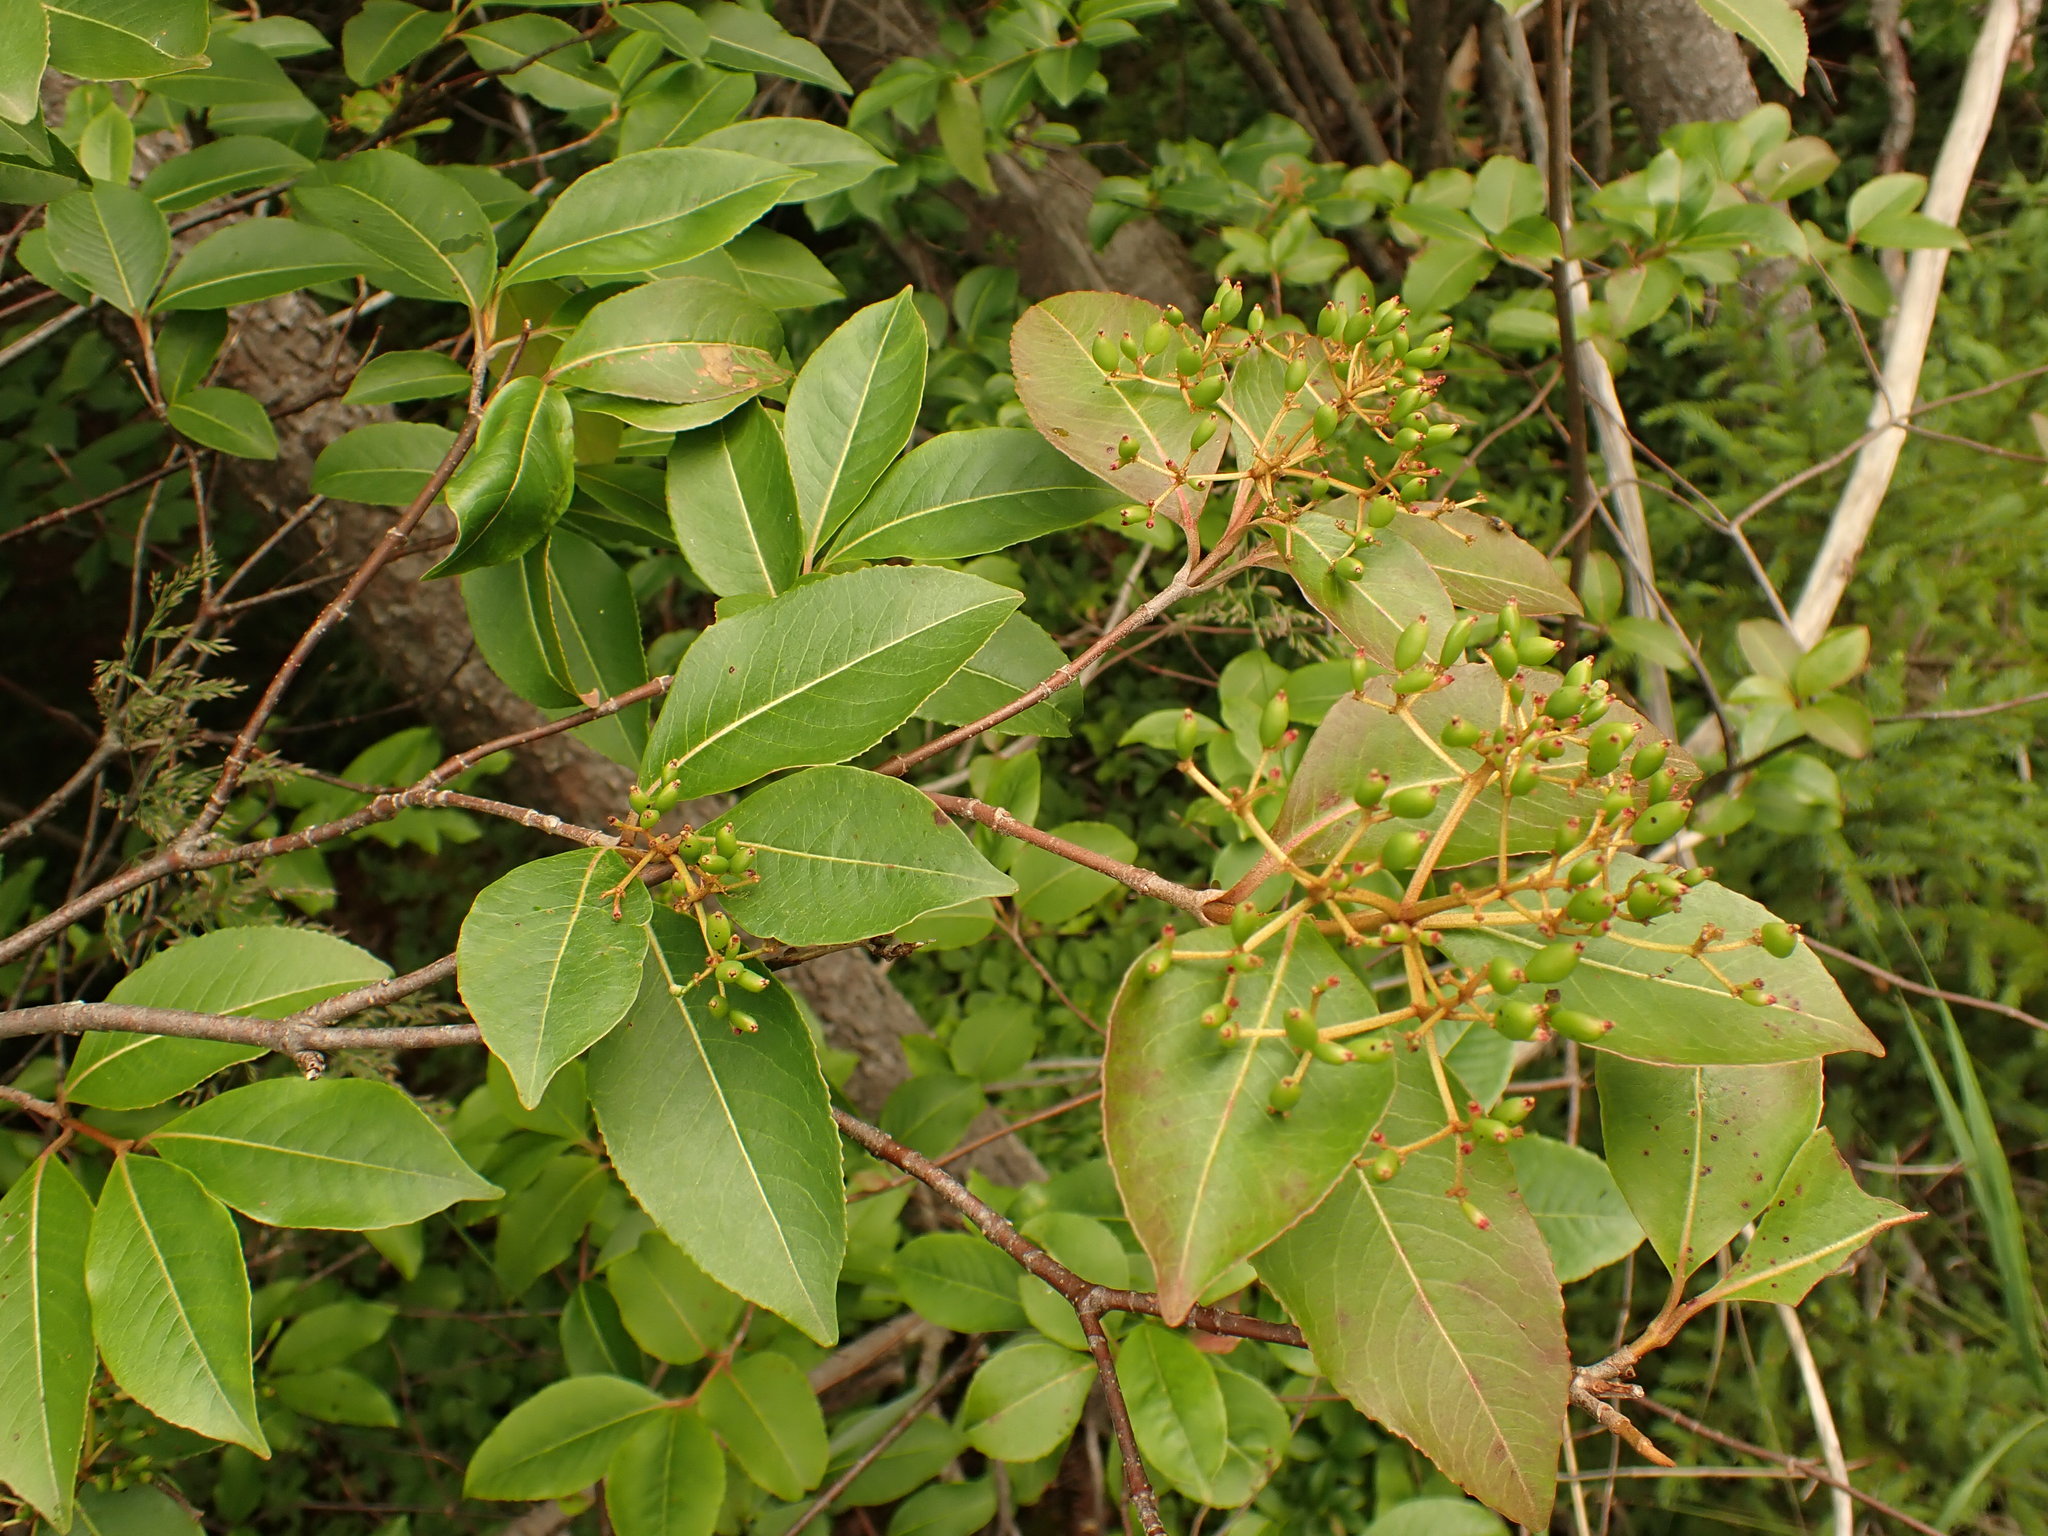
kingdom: Plantae
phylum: Tracheophyta
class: Magnoliopsida
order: Dipsacales
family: Viburnaceae
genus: Viburnum
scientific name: Viburnum cassinoides
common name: Swamp haw
